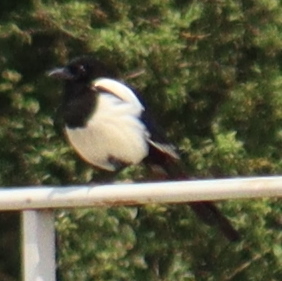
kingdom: Animalia
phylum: Chordata
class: Aves
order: Passeriformes
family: Corvidae
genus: Pica
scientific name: Pica pica
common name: Eurasian magpie
